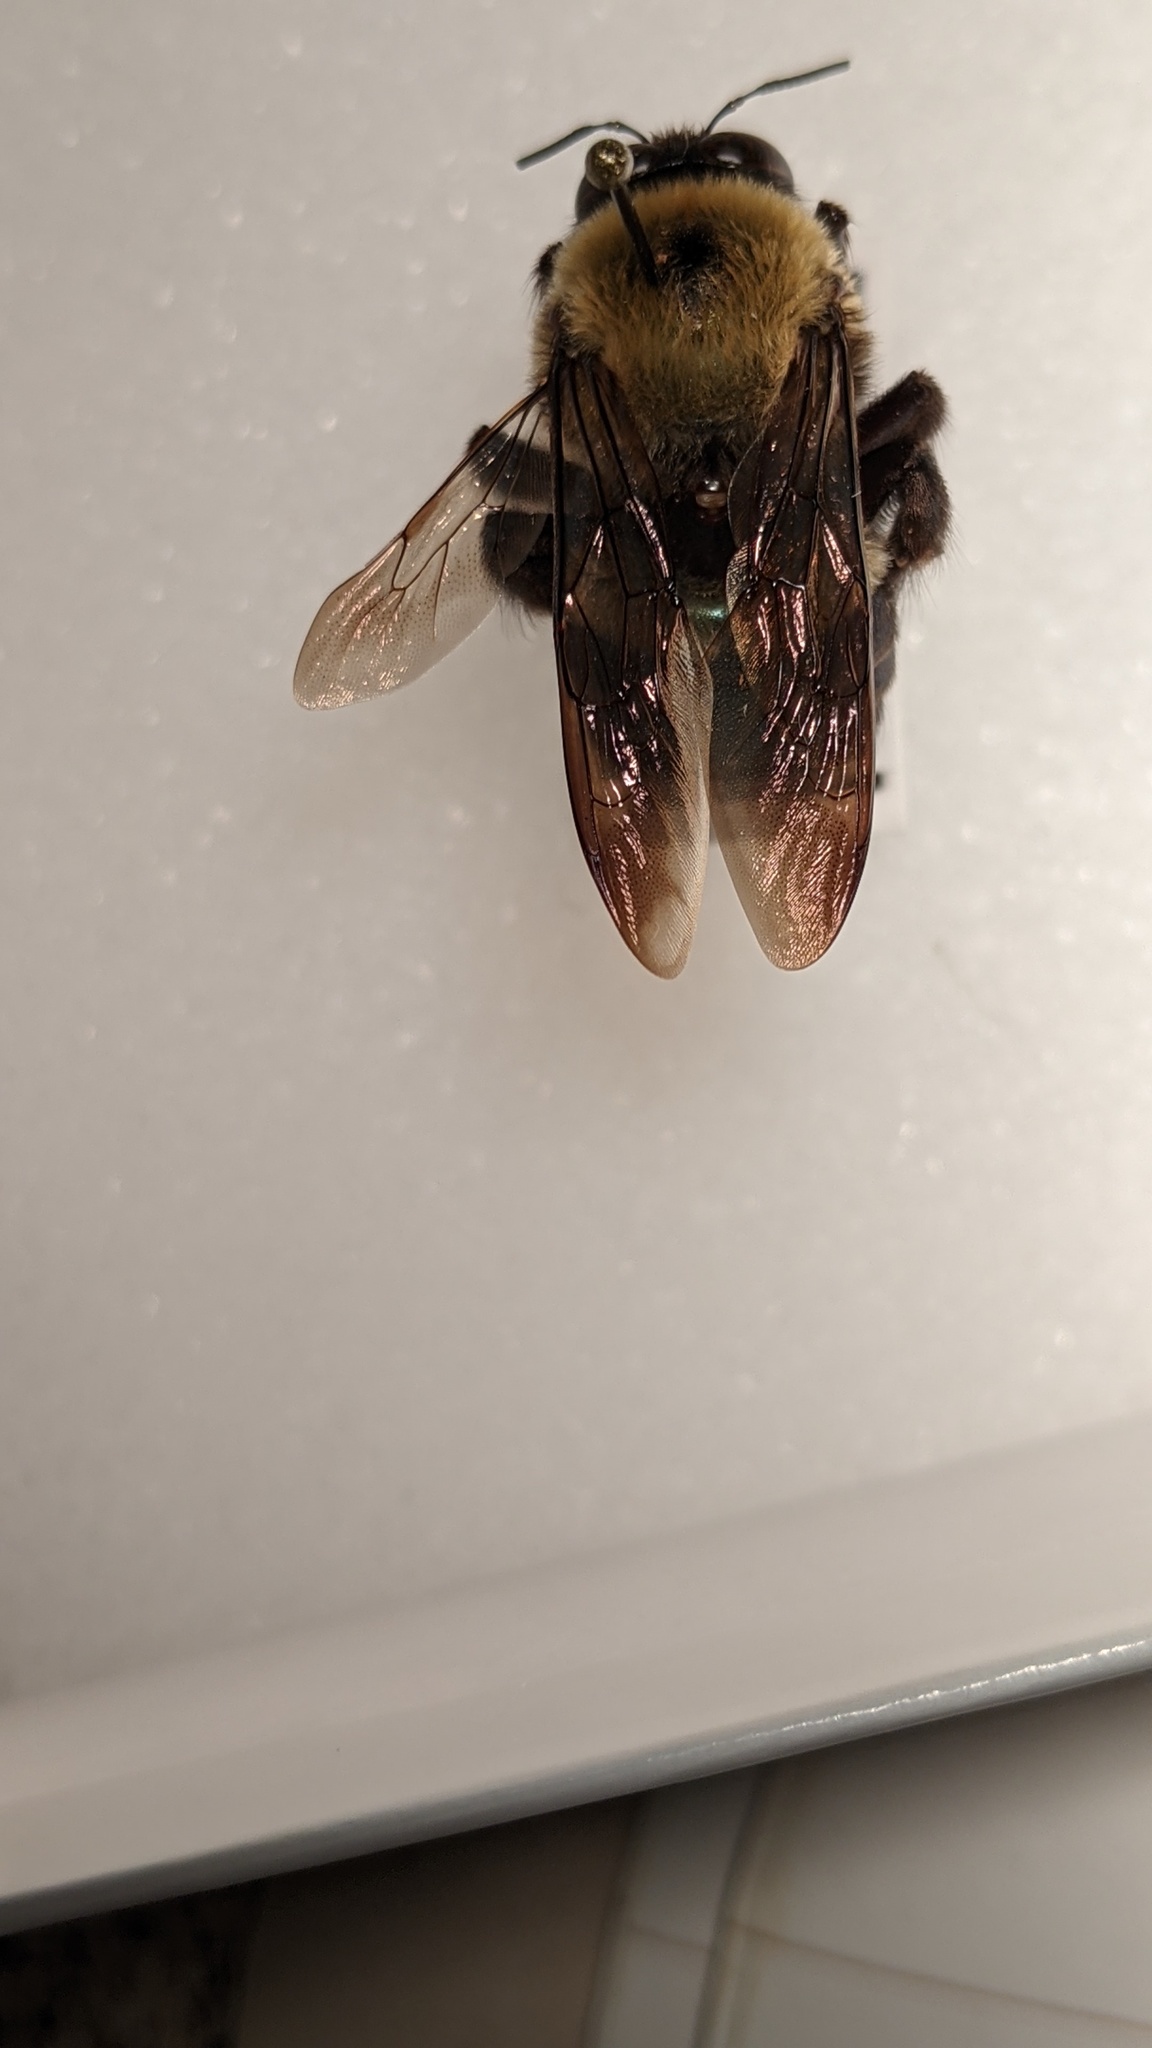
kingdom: Animalia
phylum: Arthropoda
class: Insecta
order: Hymenoptera
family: Apidae
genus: Xylocopa
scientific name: Xylocopa virginica
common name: Carpenter bee
